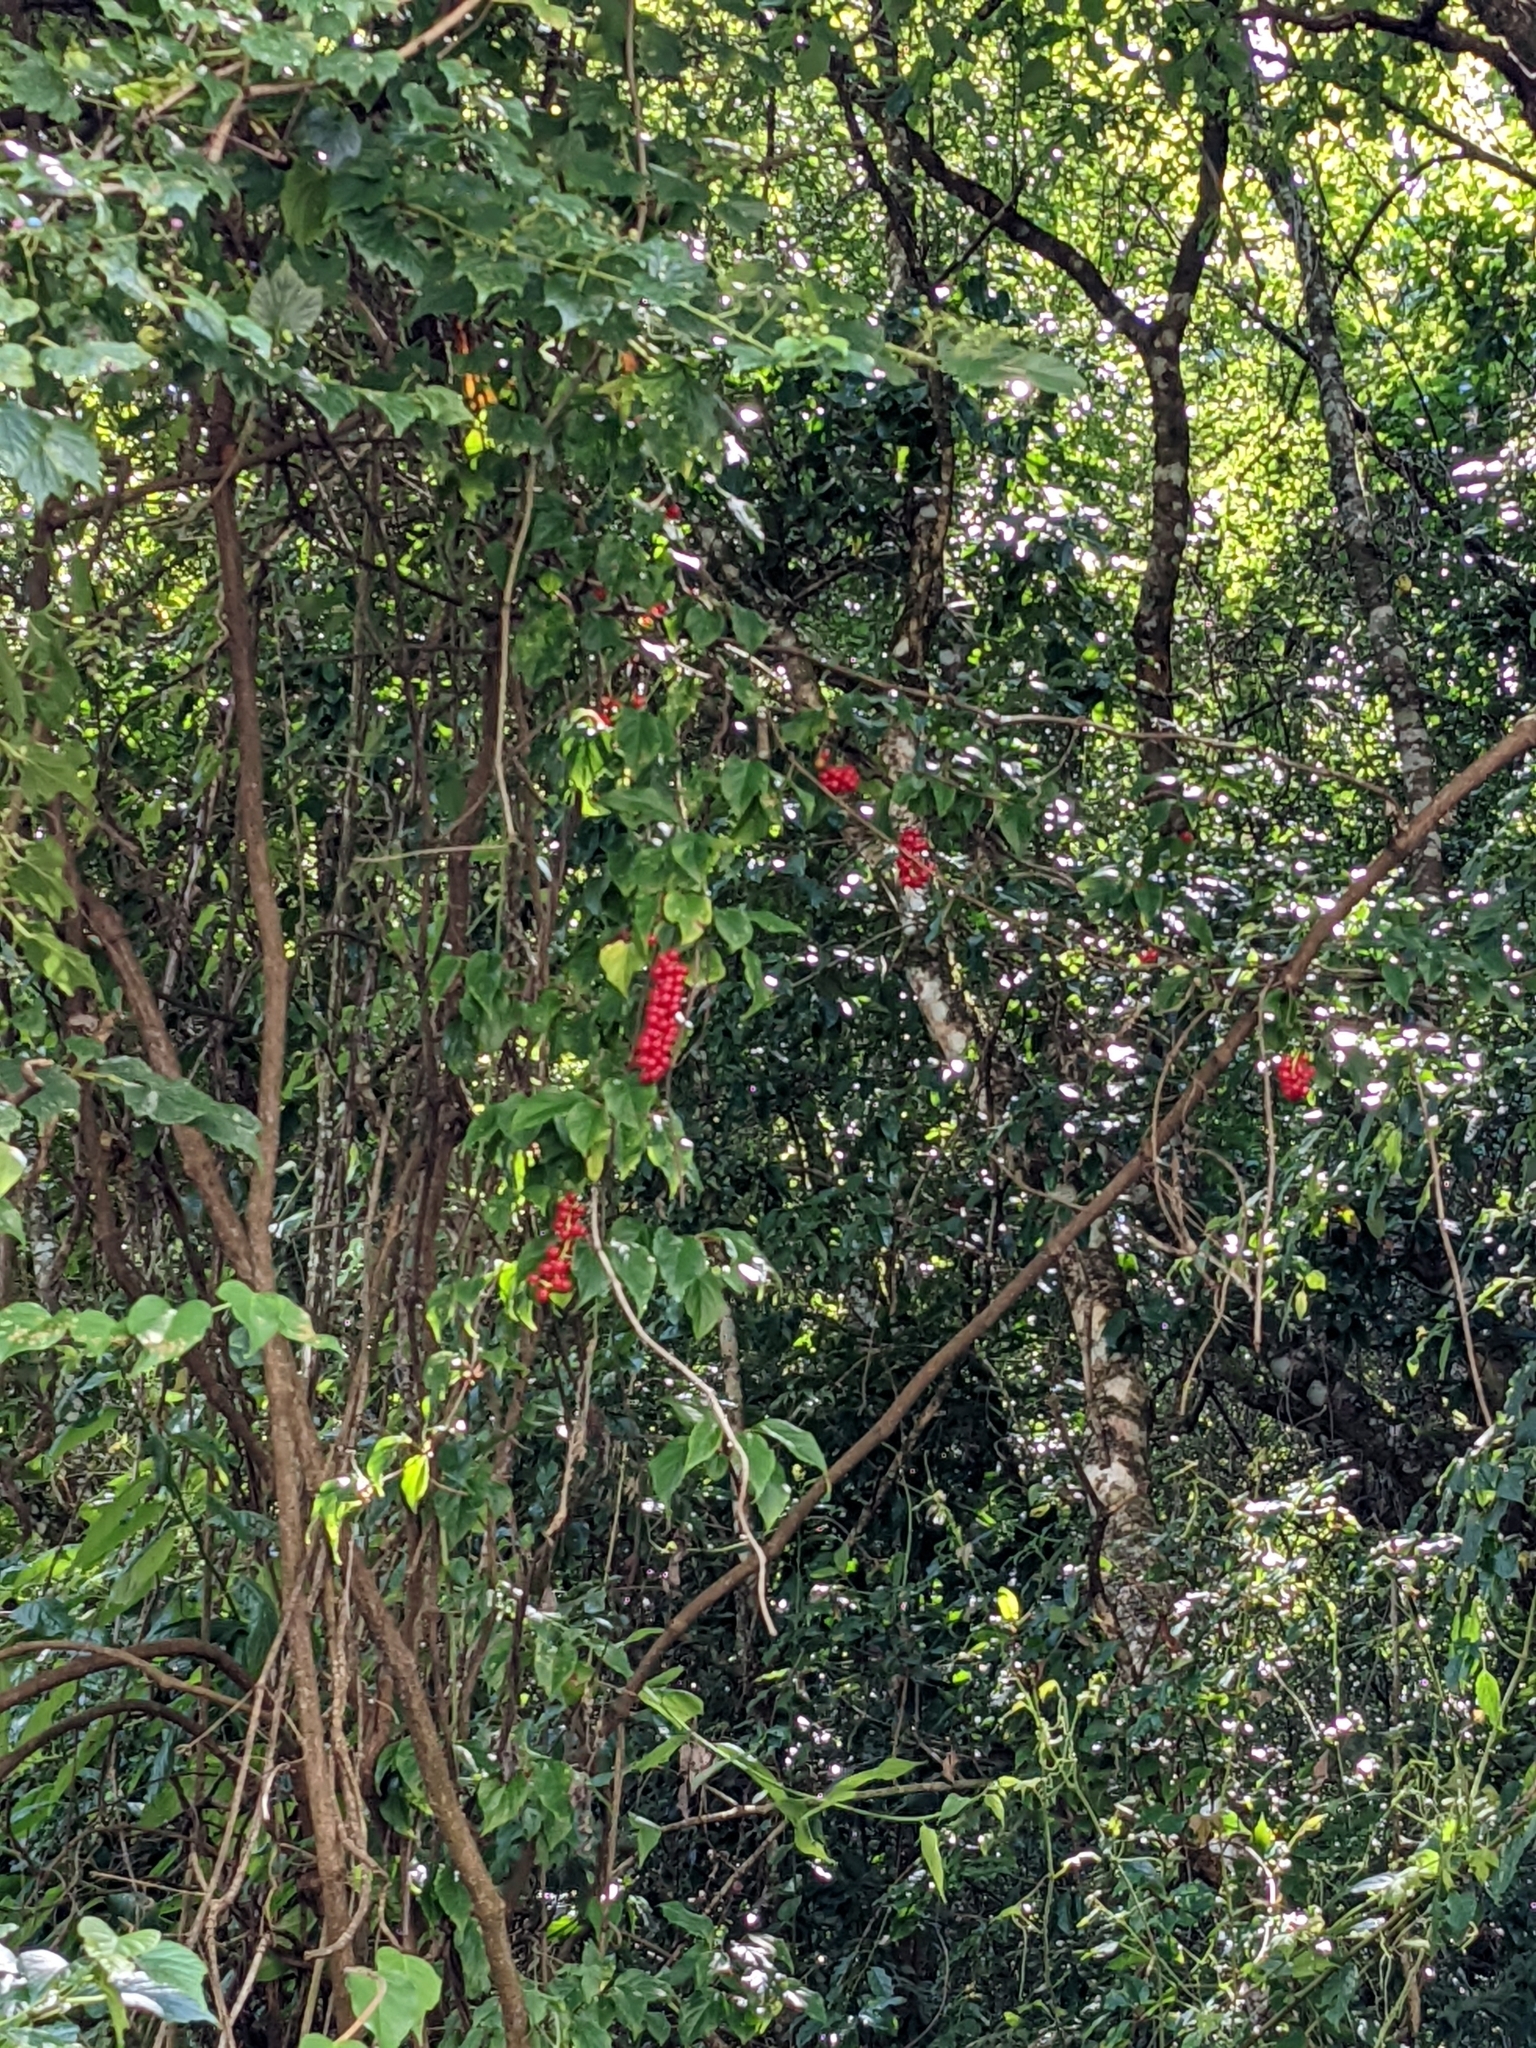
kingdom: Plantae
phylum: Tracheophyta
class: Magnoliopsida
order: Austrobaileyales
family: Schisandraceae
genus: Schisandra
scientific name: Schisandra arisanensis
